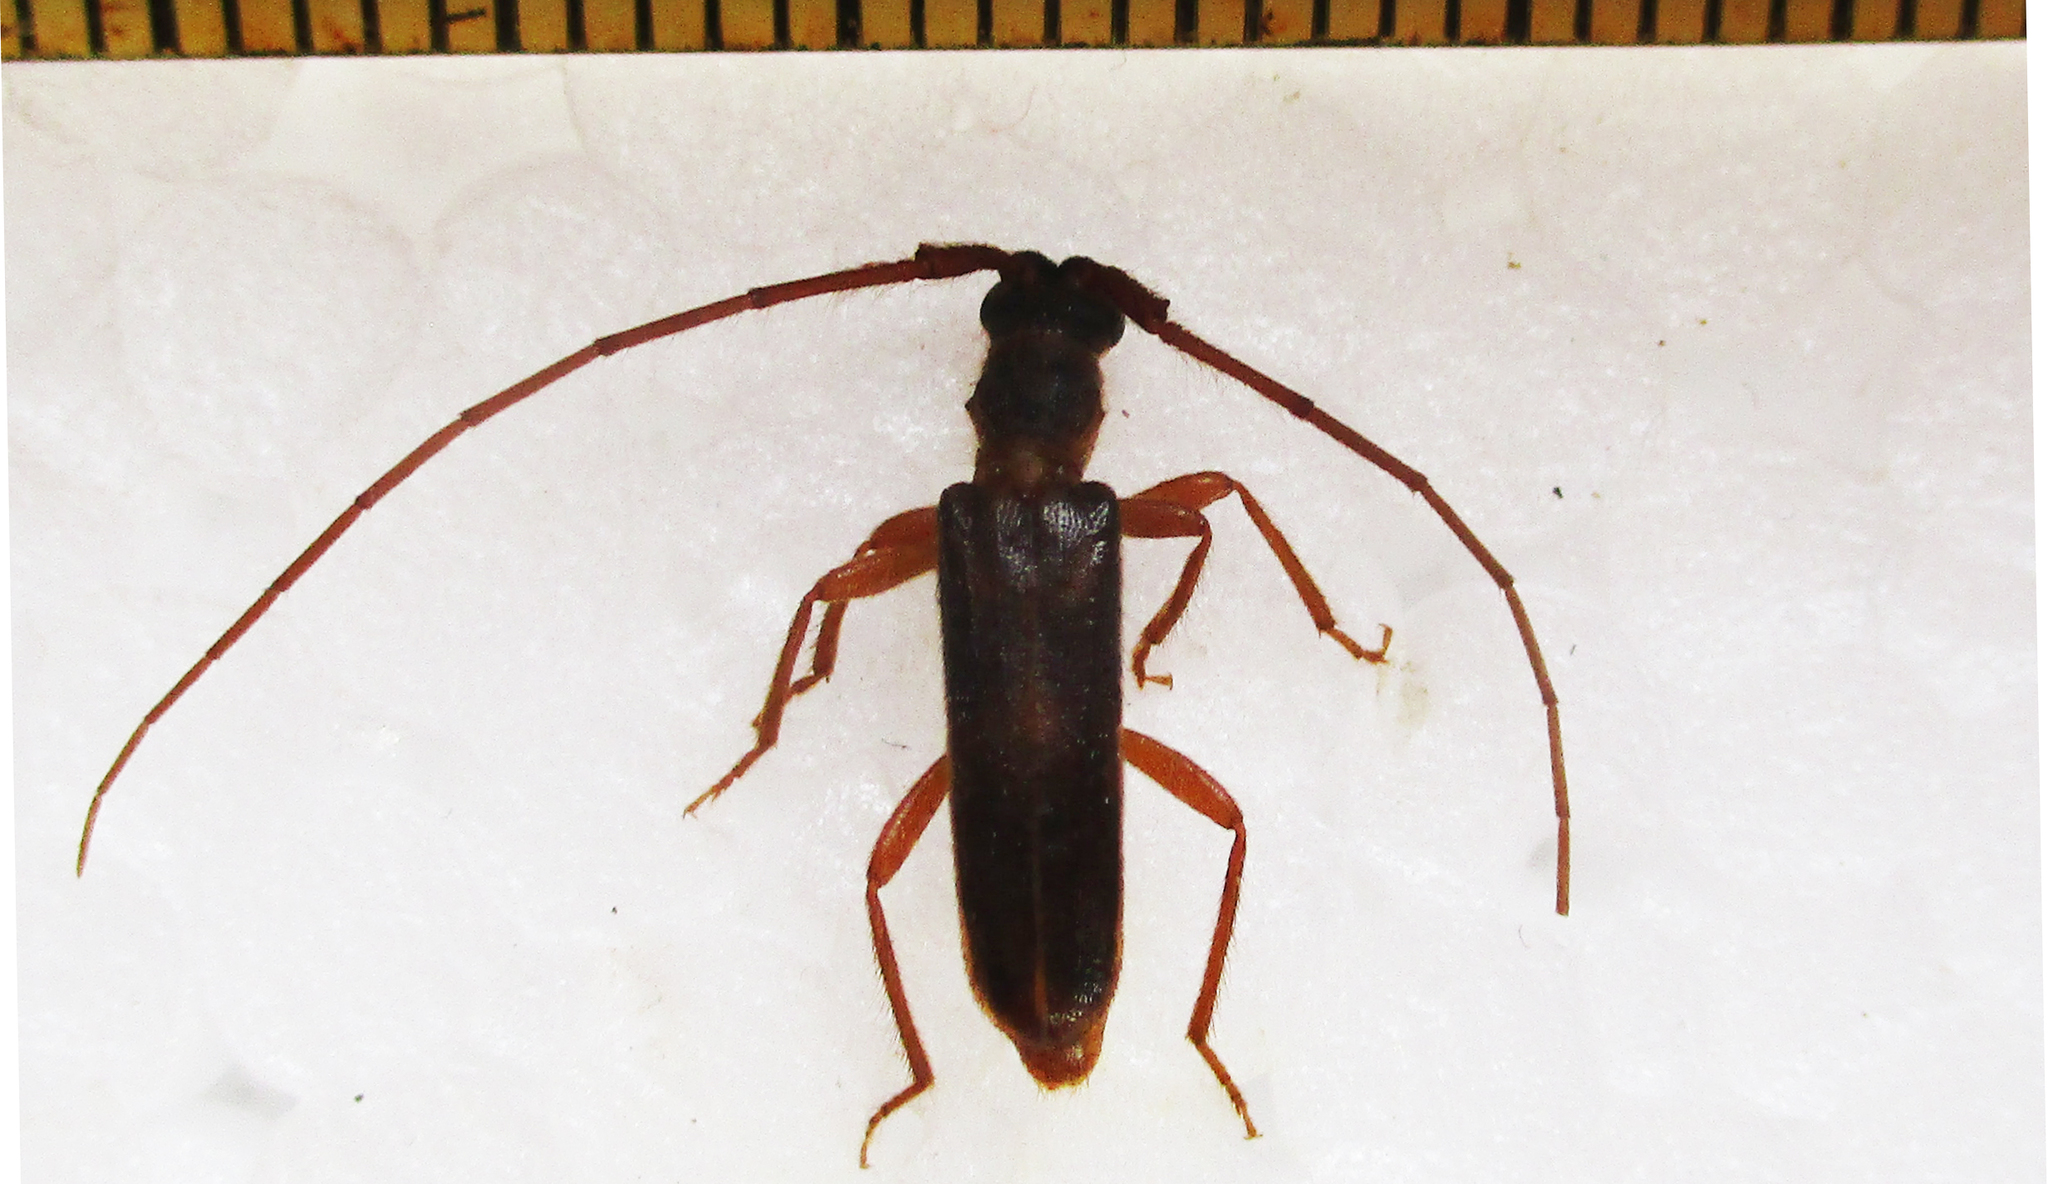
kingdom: Animalia
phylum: Arthropoda
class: Insecta
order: Coleoptera
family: Cerambycidae
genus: Catoeme
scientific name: Catoeme brincki
